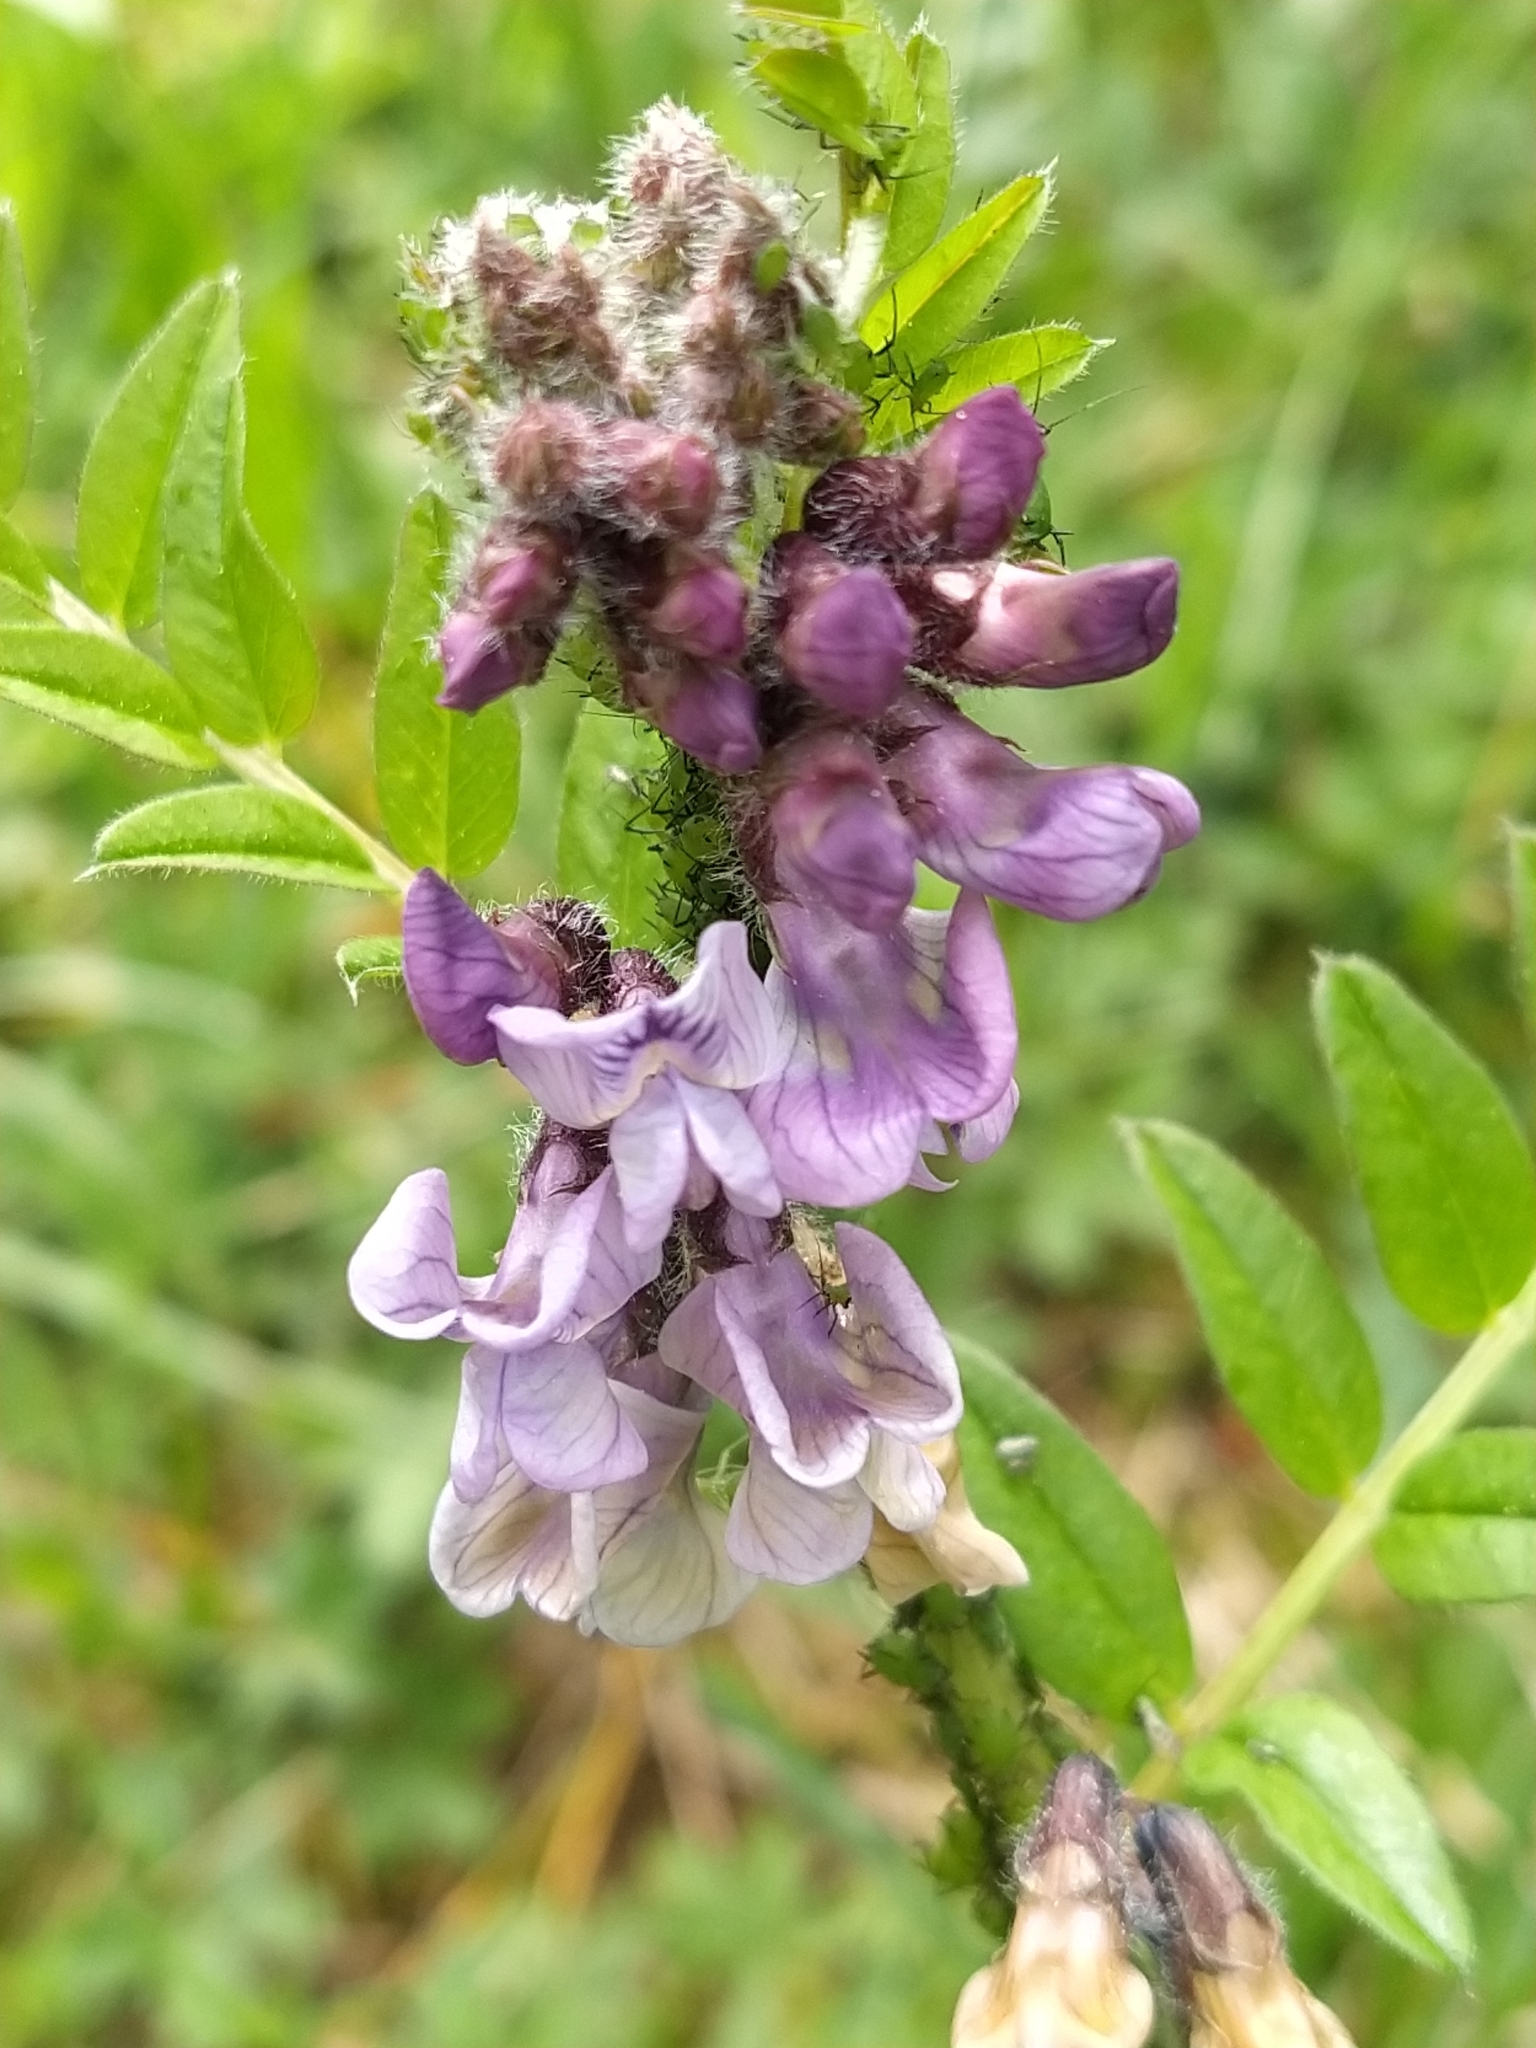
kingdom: Plantae
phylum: Tracheophyta
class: Magnoliopsida
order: Fabales
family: Fabaceae
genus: Vicia
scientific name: Vicia sepium
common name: Bush vetch
